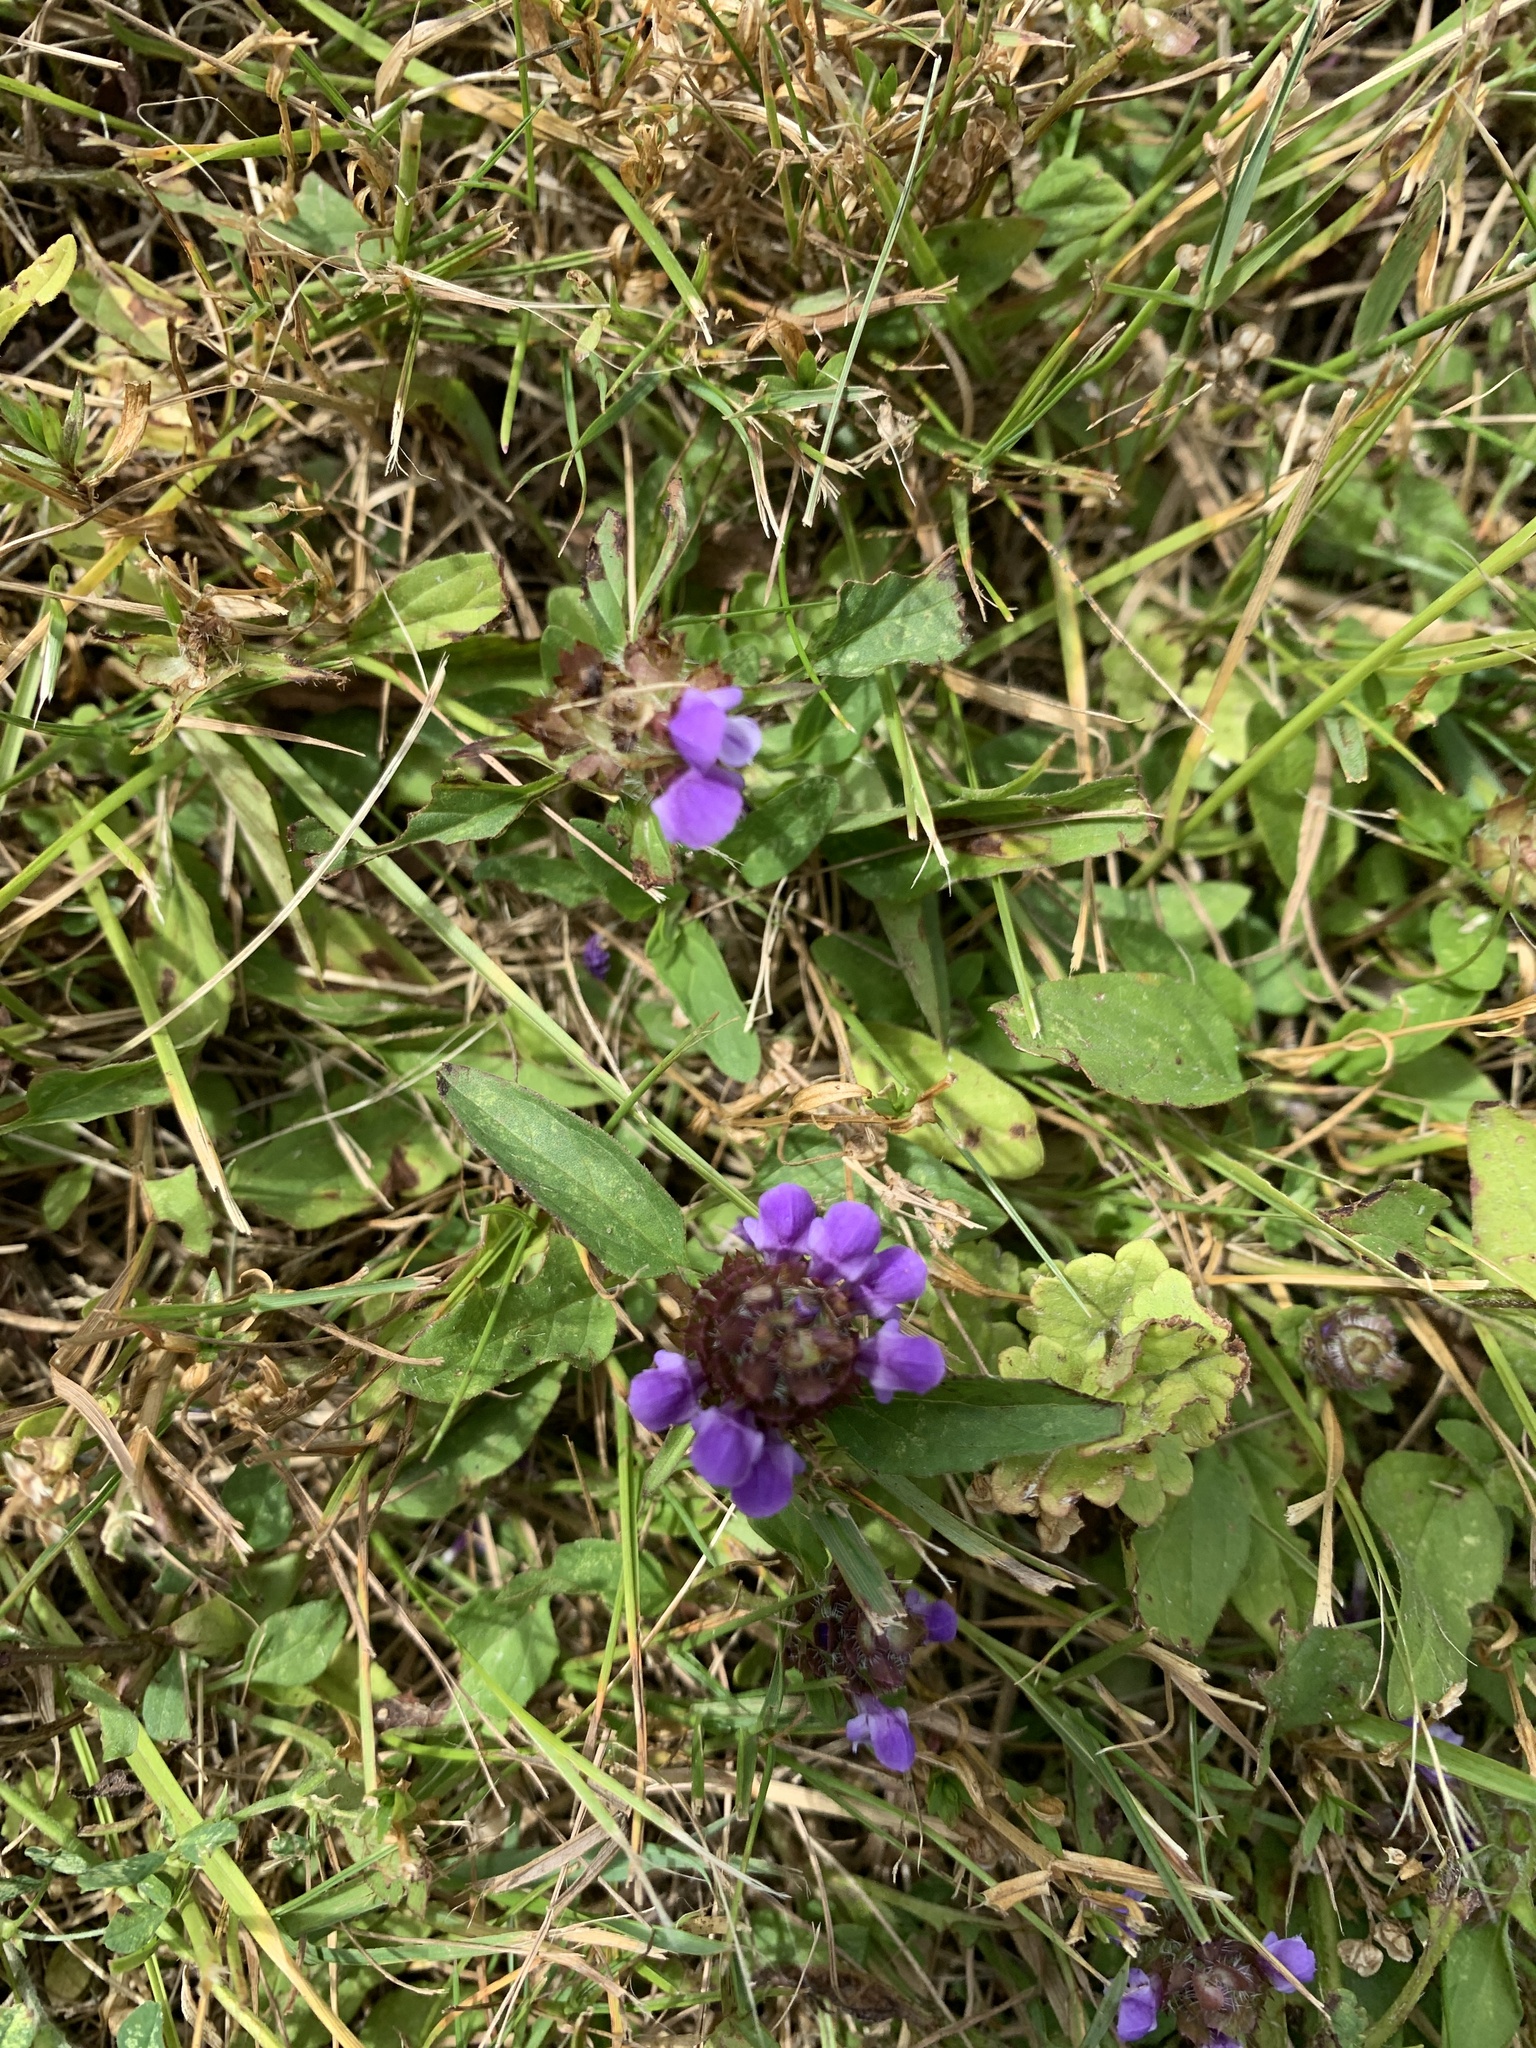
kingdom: Plantae
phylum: Tracheophyta
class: Magnoliopsida
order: Lamiales
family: Lamiaceae
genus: Prunella
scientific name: Prunella vulgaris
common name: Heal-all
